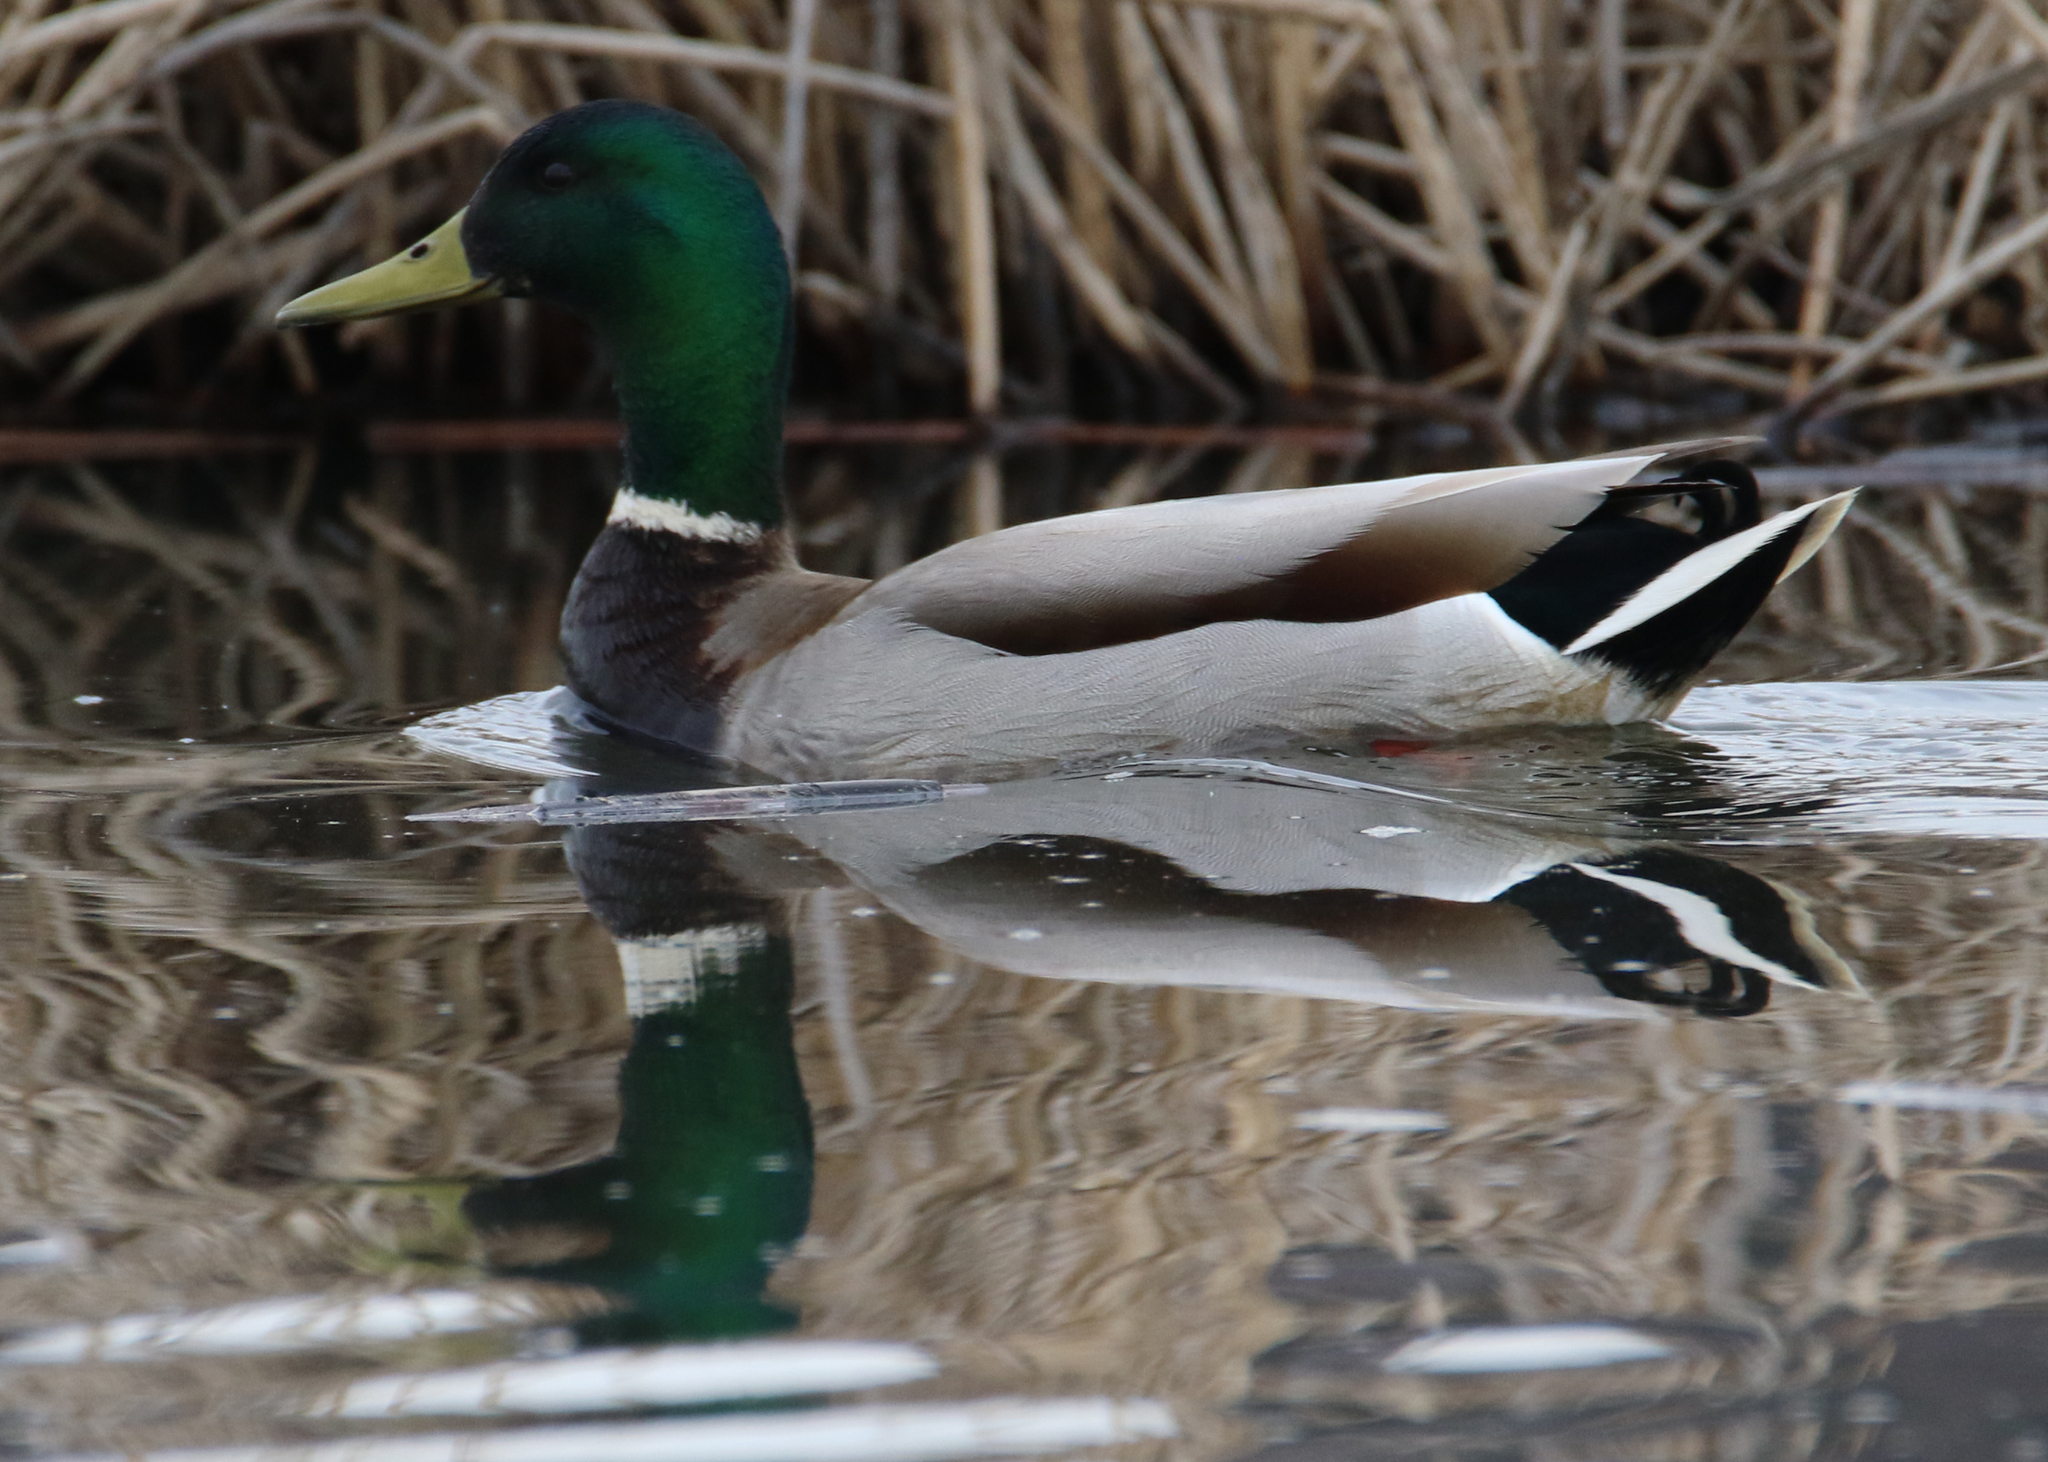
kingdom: Animalia
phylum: Chordata
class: Aves
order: Anseriformes
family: Anatidae
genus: Anas
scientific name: Anas platyrhynchos
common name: Mallard
